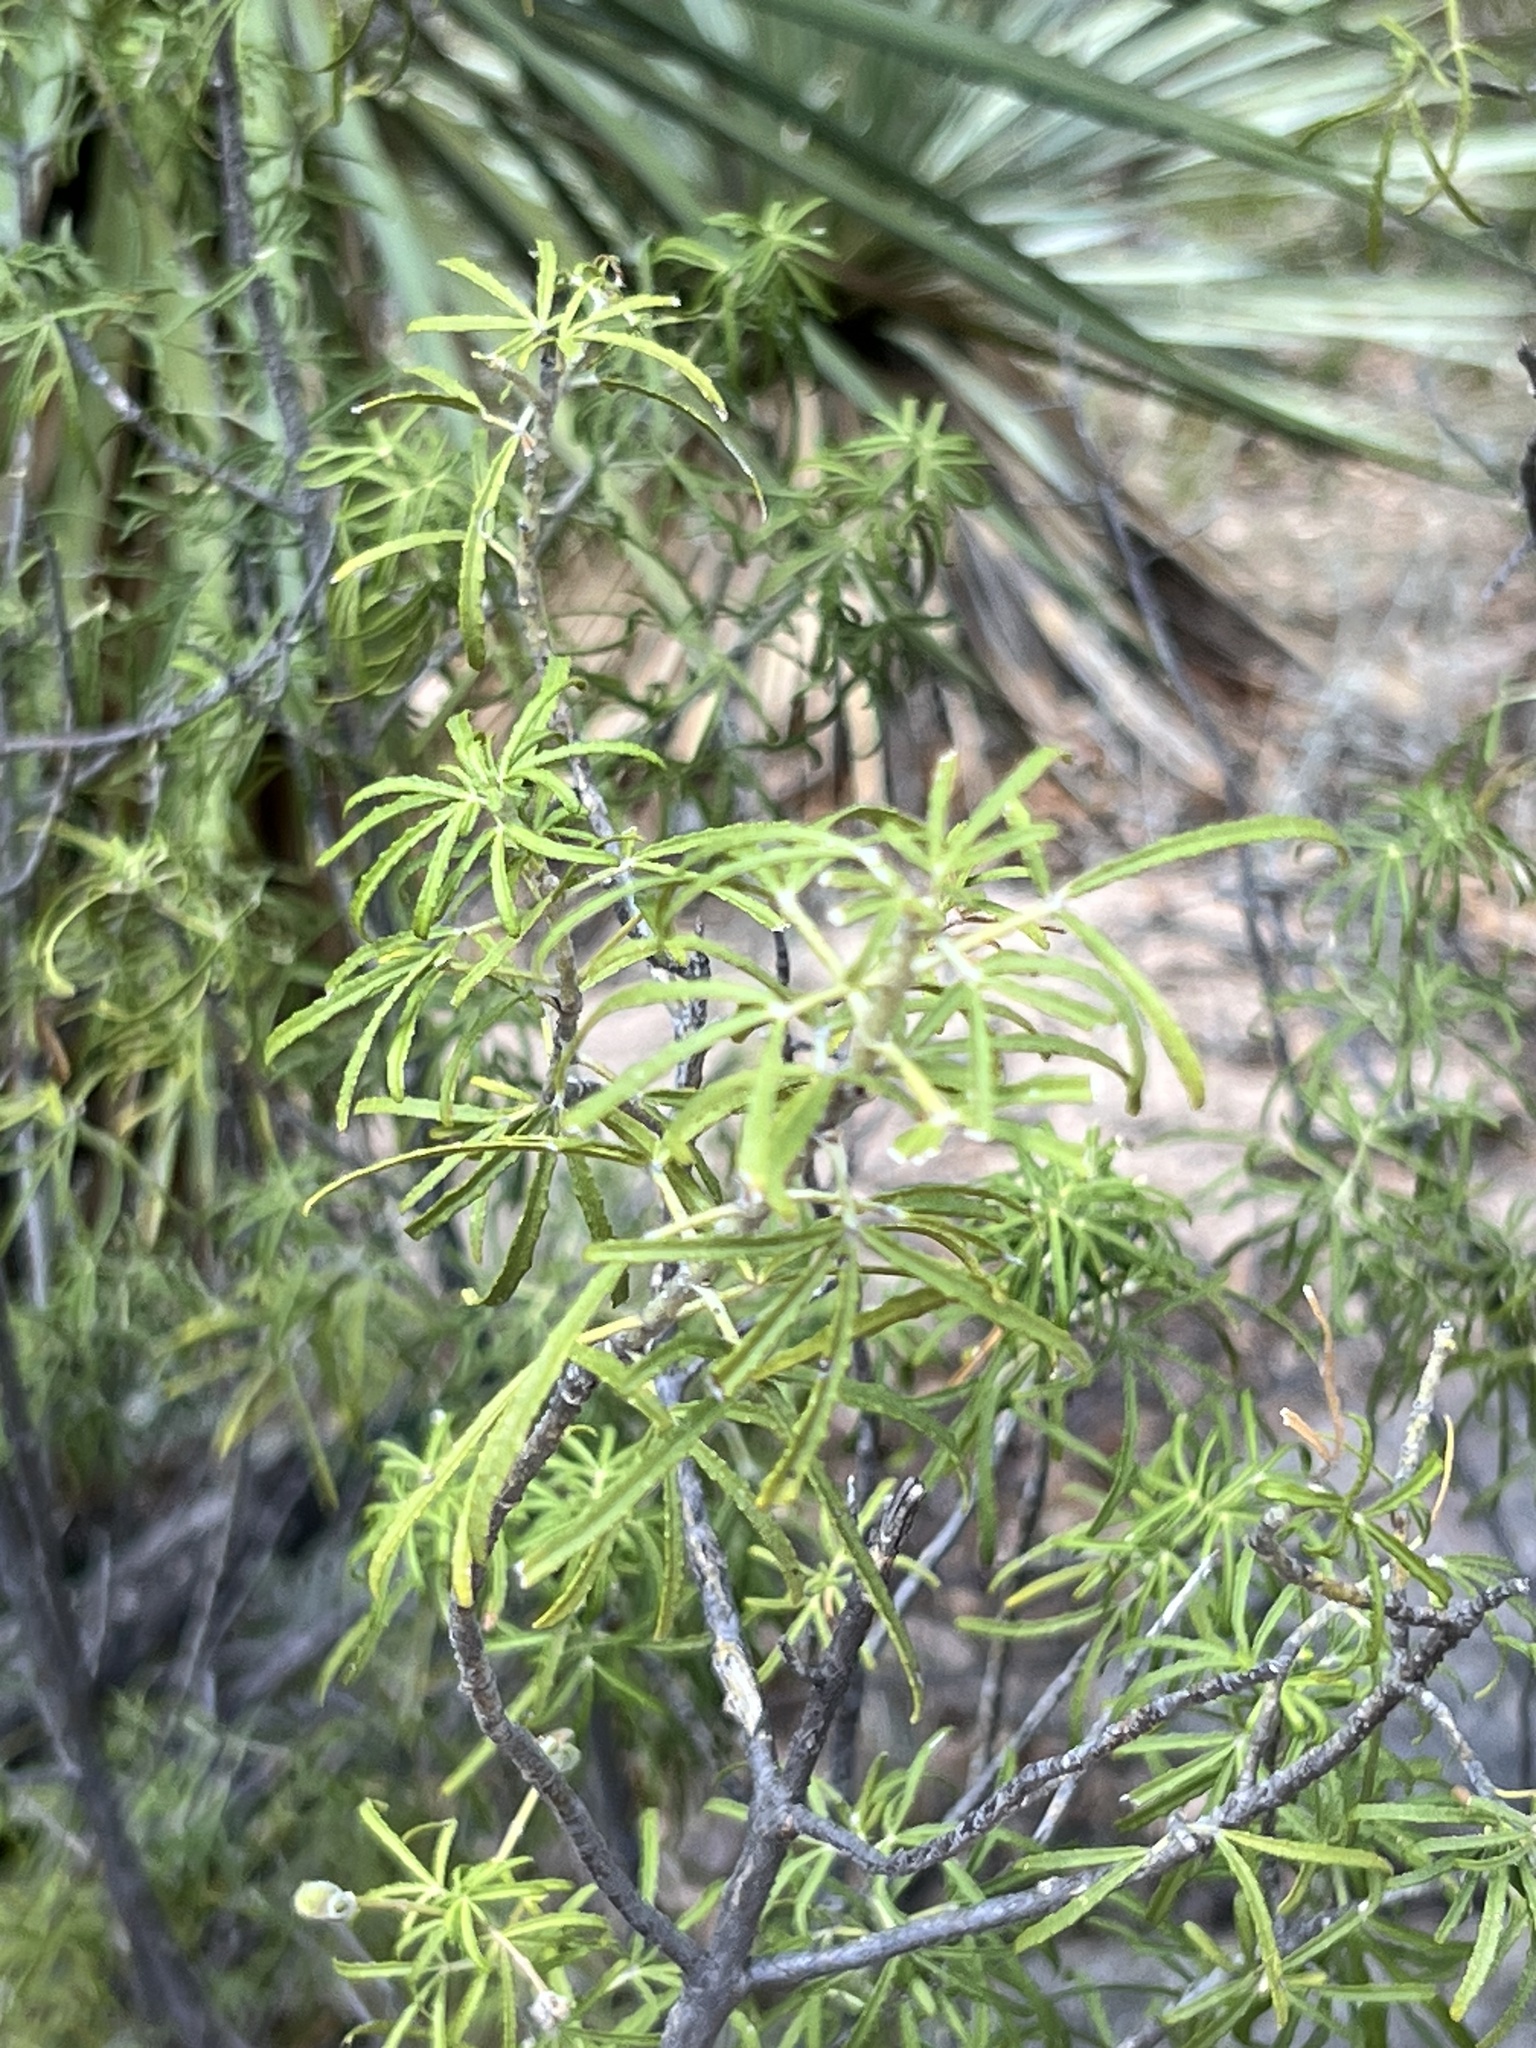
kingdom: Plantae
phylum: Tracheophyta
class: Magnoliopsida
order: Sapindales
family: Rutaceae
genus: Choisya
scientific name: Choisya dumosa
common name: Mexican-orange
